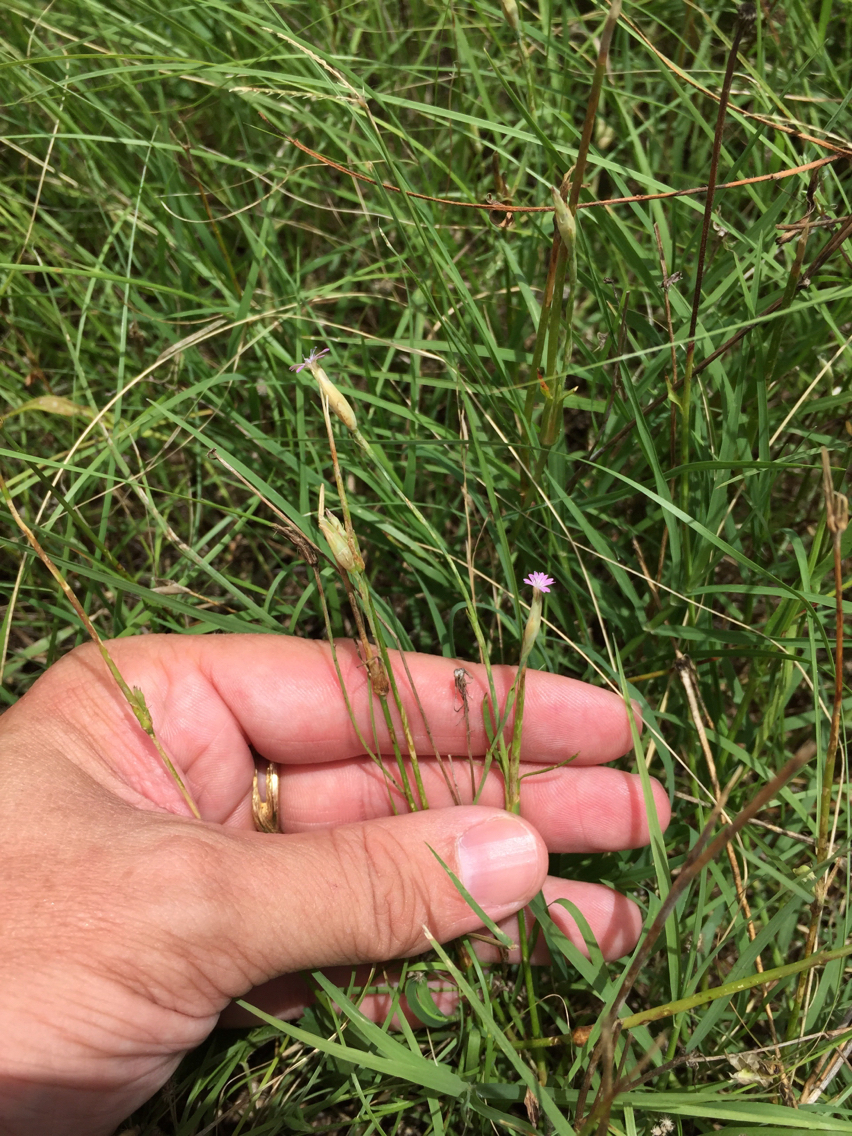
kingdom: Plantae
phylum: Tracheophyta
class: Magnoliopsida
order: Caryophyllales
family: Caryophyllaceae
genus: Petrorhagia
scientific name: Petrorhagia dubia
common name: Hairypink
